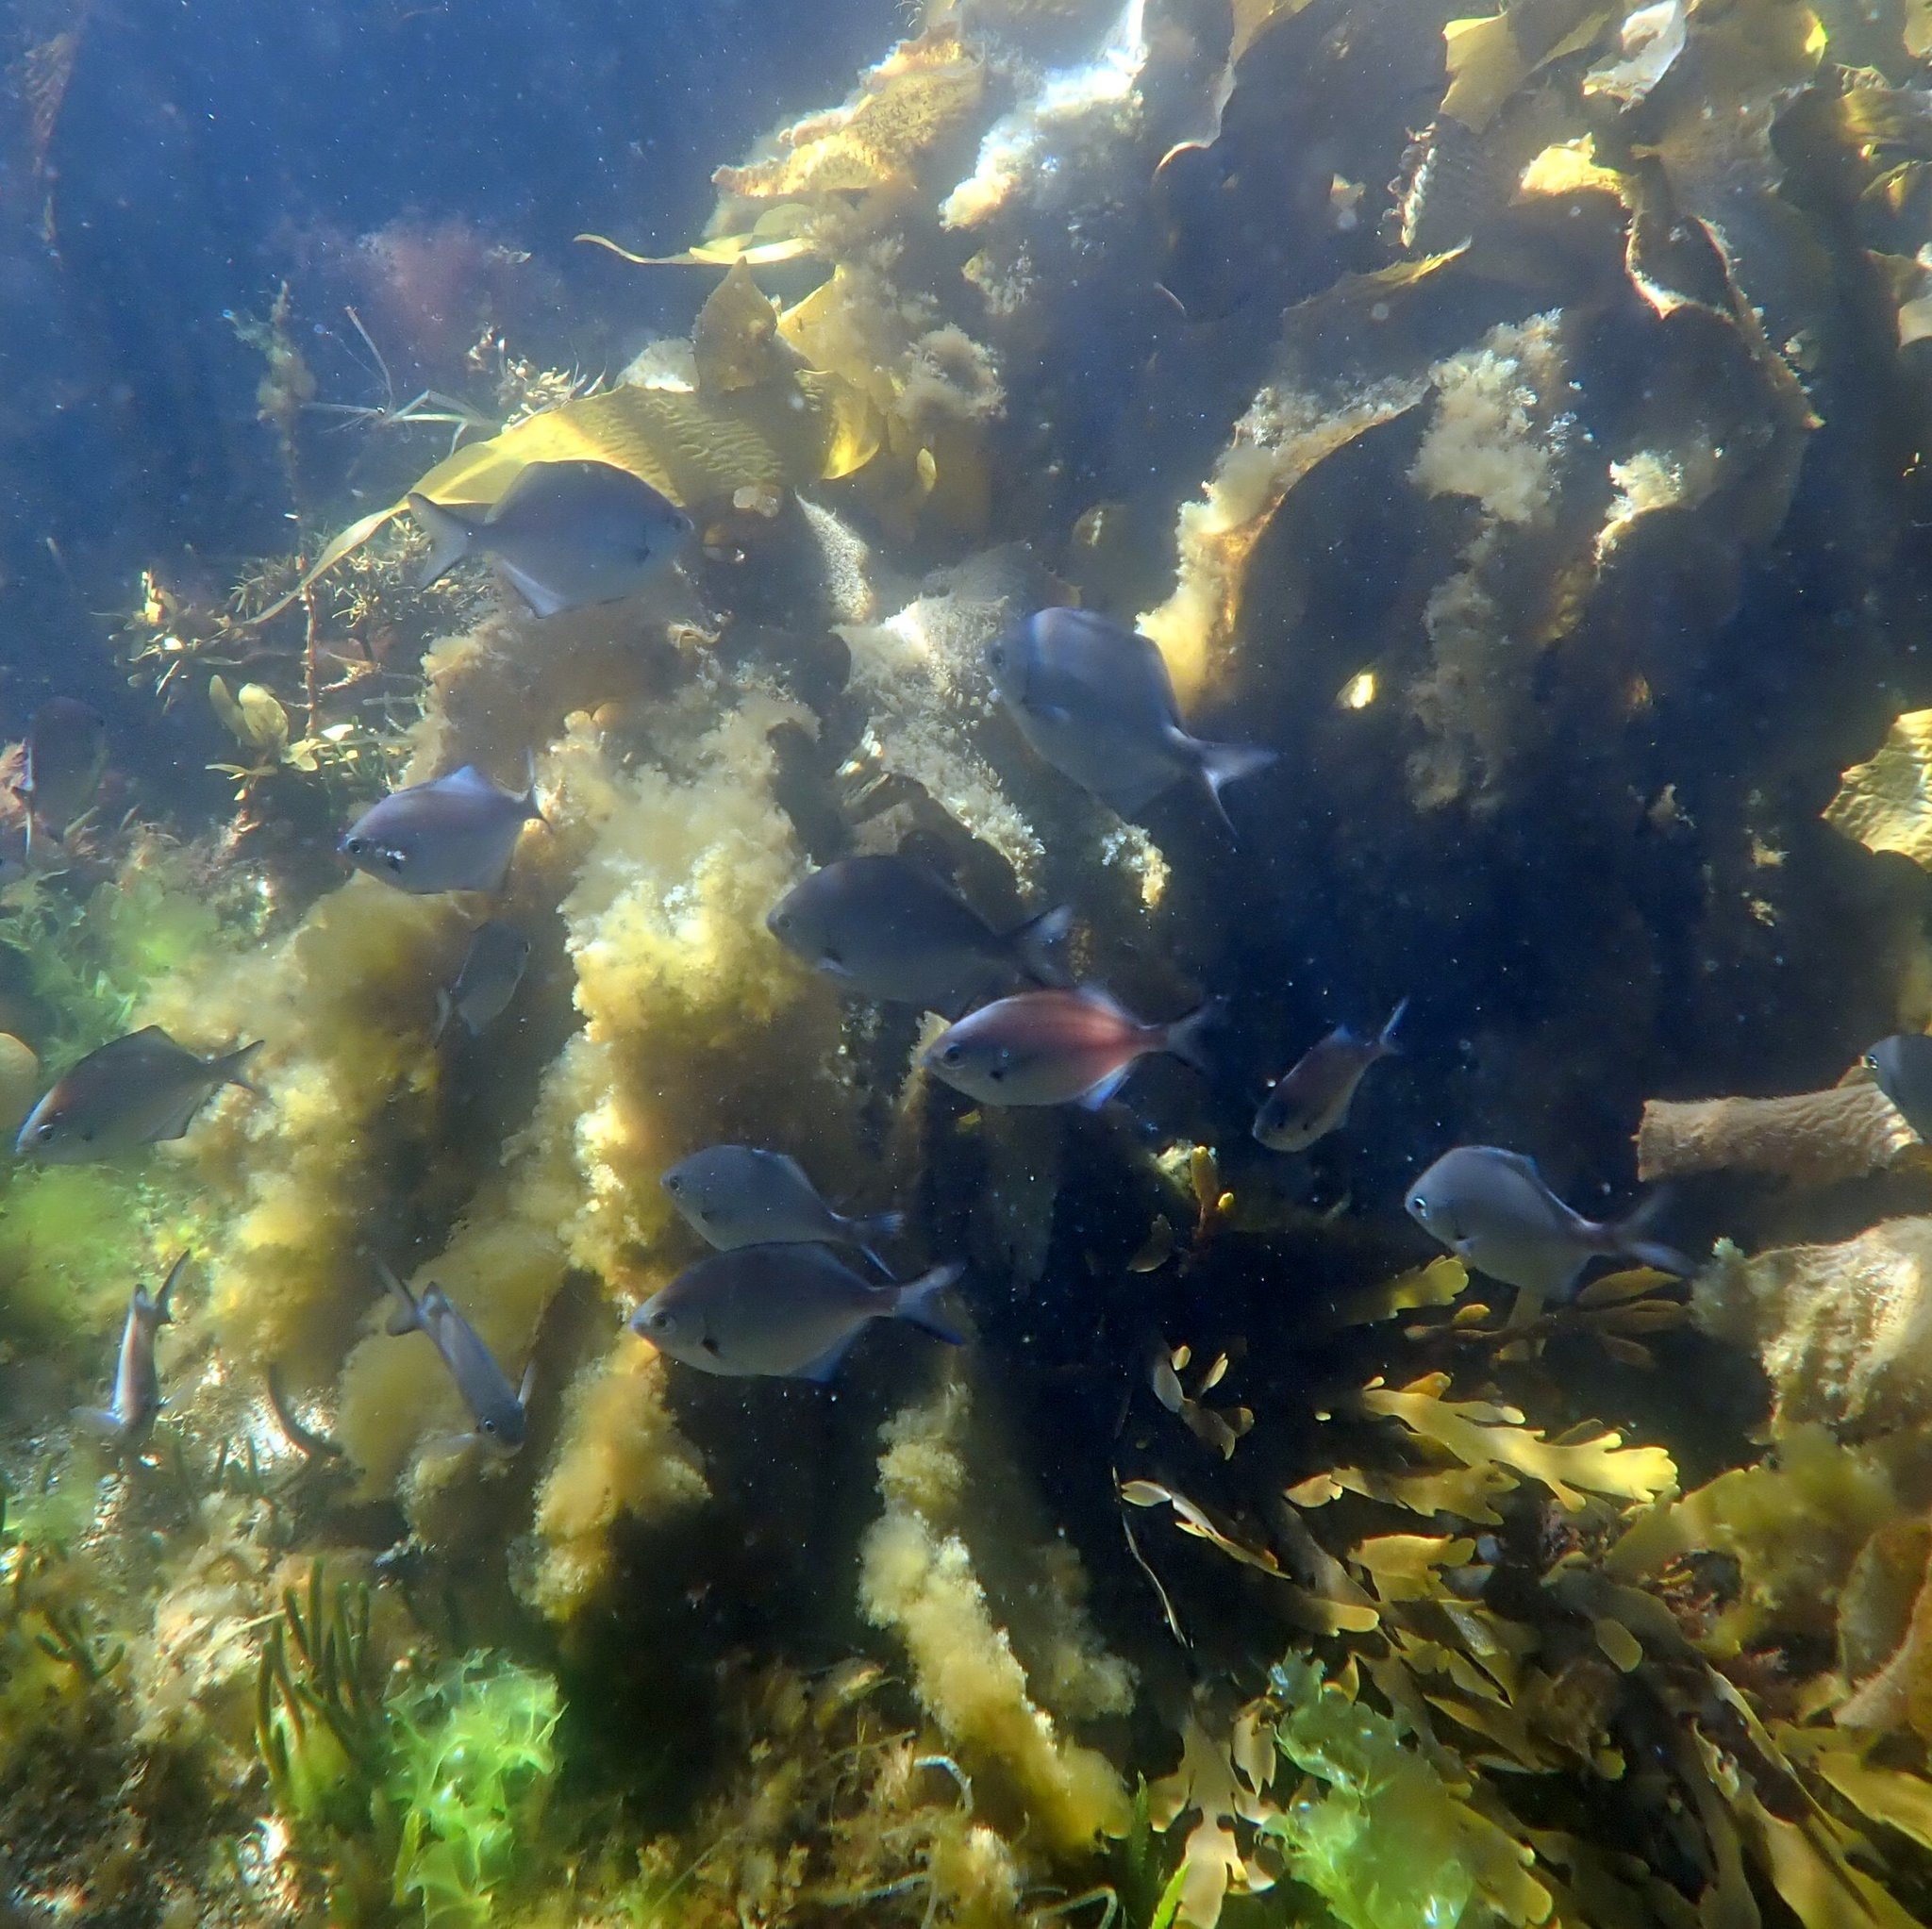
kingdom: Animalia
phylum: Chordata
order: Perciformes
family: Kyphosidae
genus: Scorpis
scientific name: Scorpis lineolata
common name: Sweep
